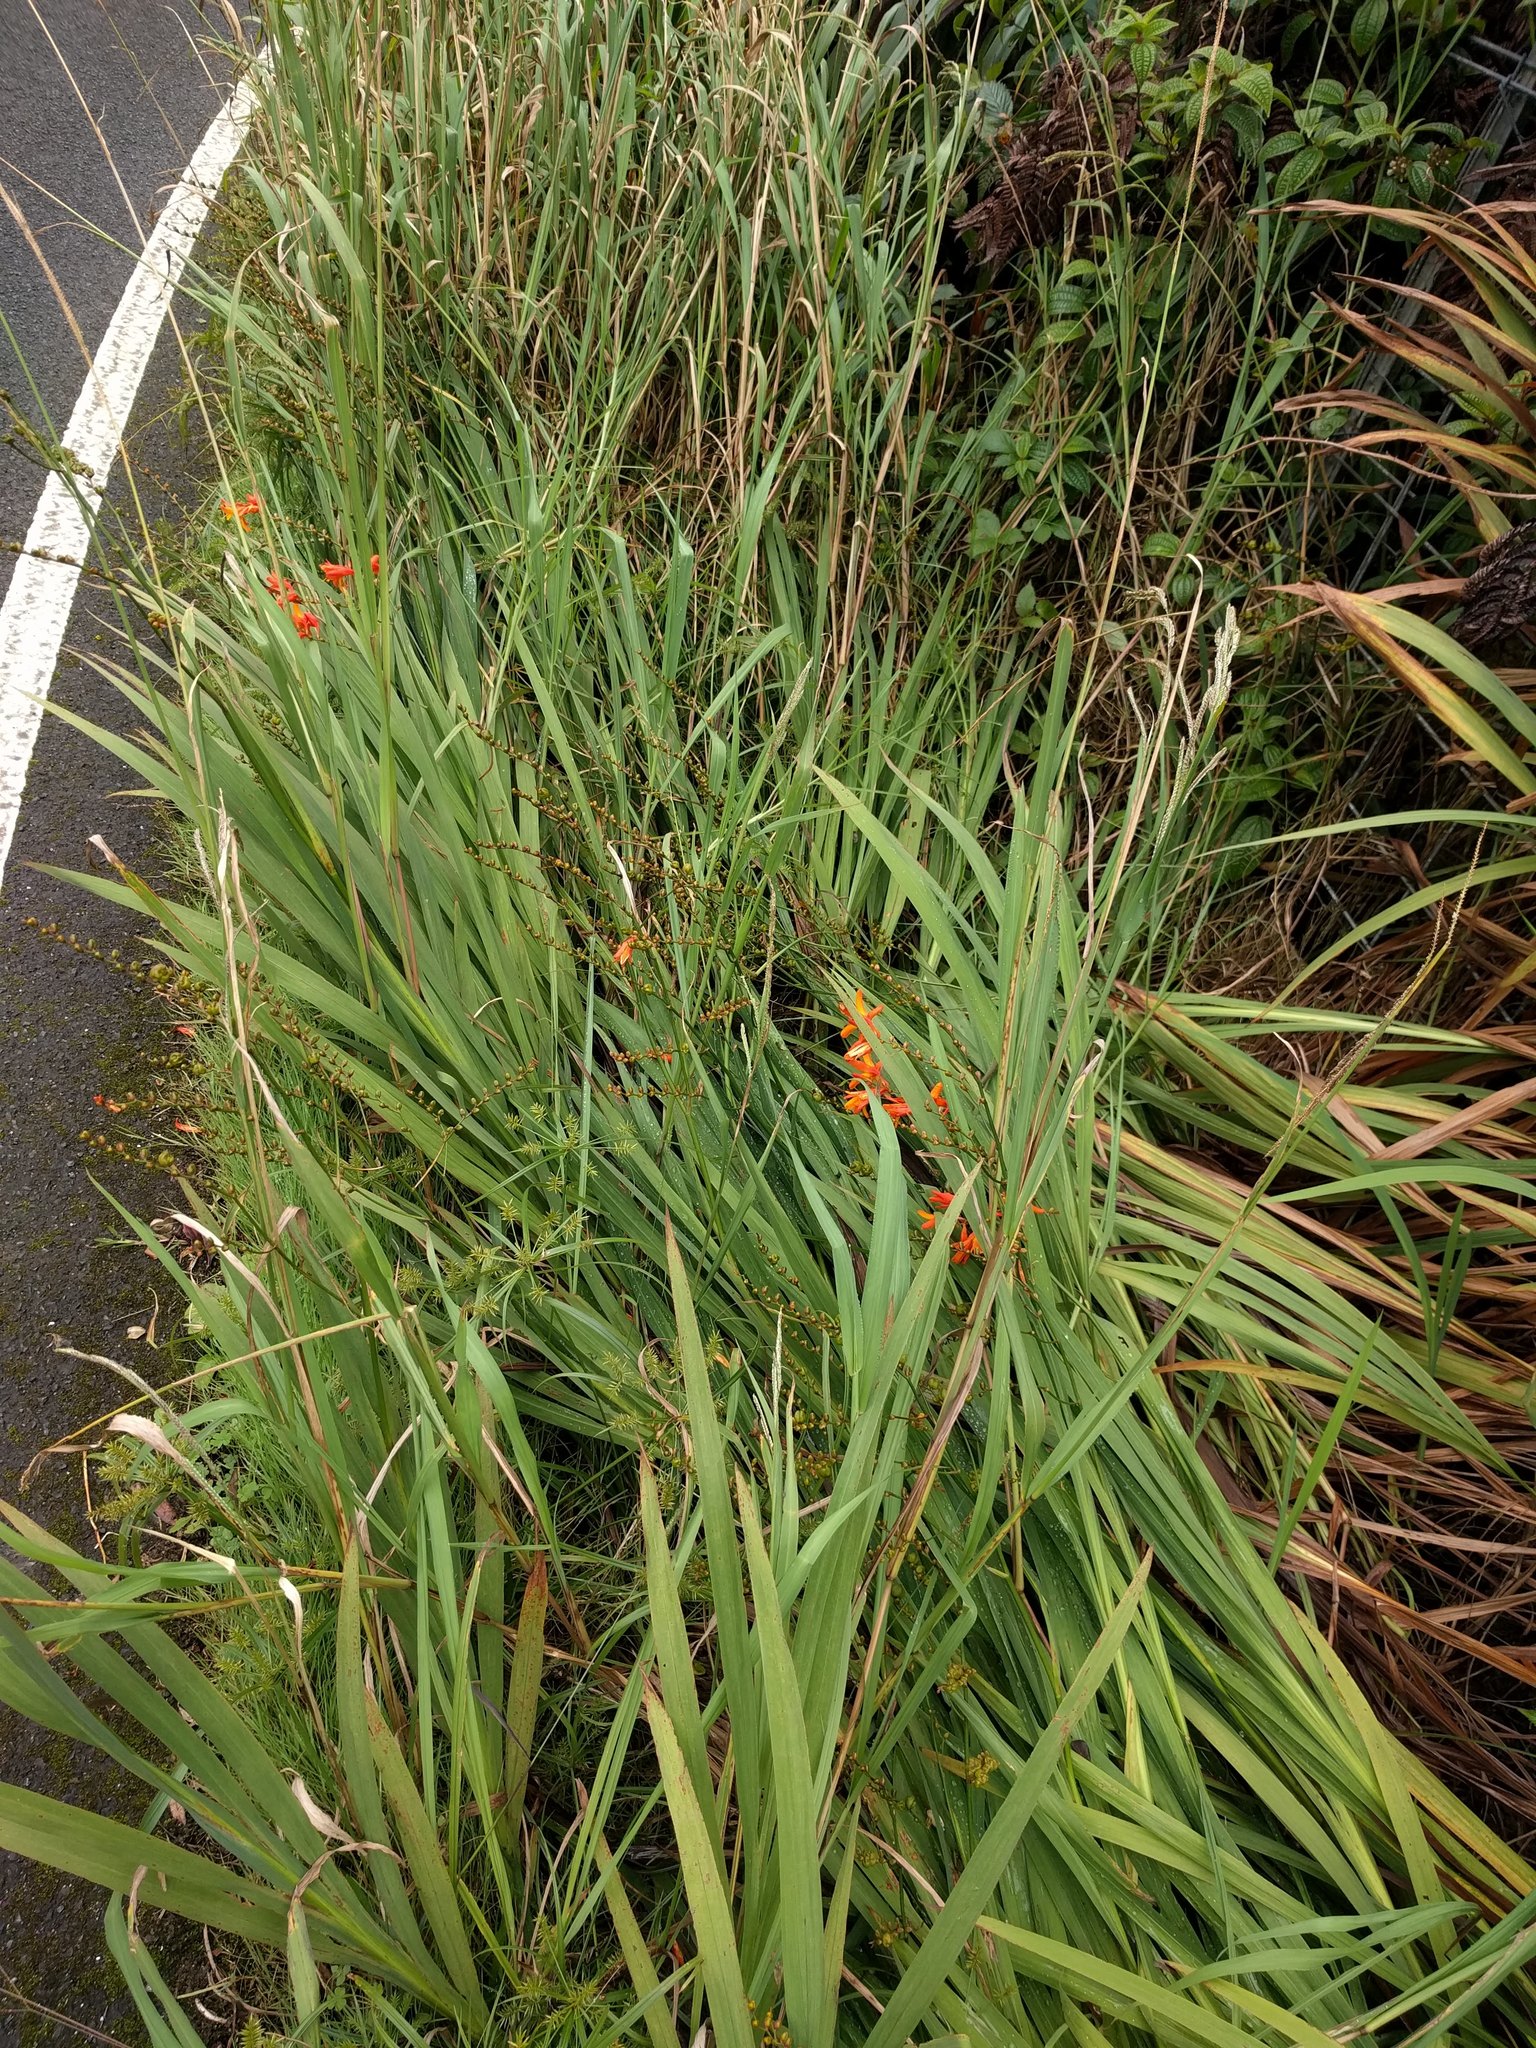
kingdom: Plantae
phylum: Tracheophyta
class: Liliopsida
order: Asparagales
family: Iridaceae
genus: Crocosmia
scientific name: Crocosmia crocosmiiflora
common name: Montbretia
